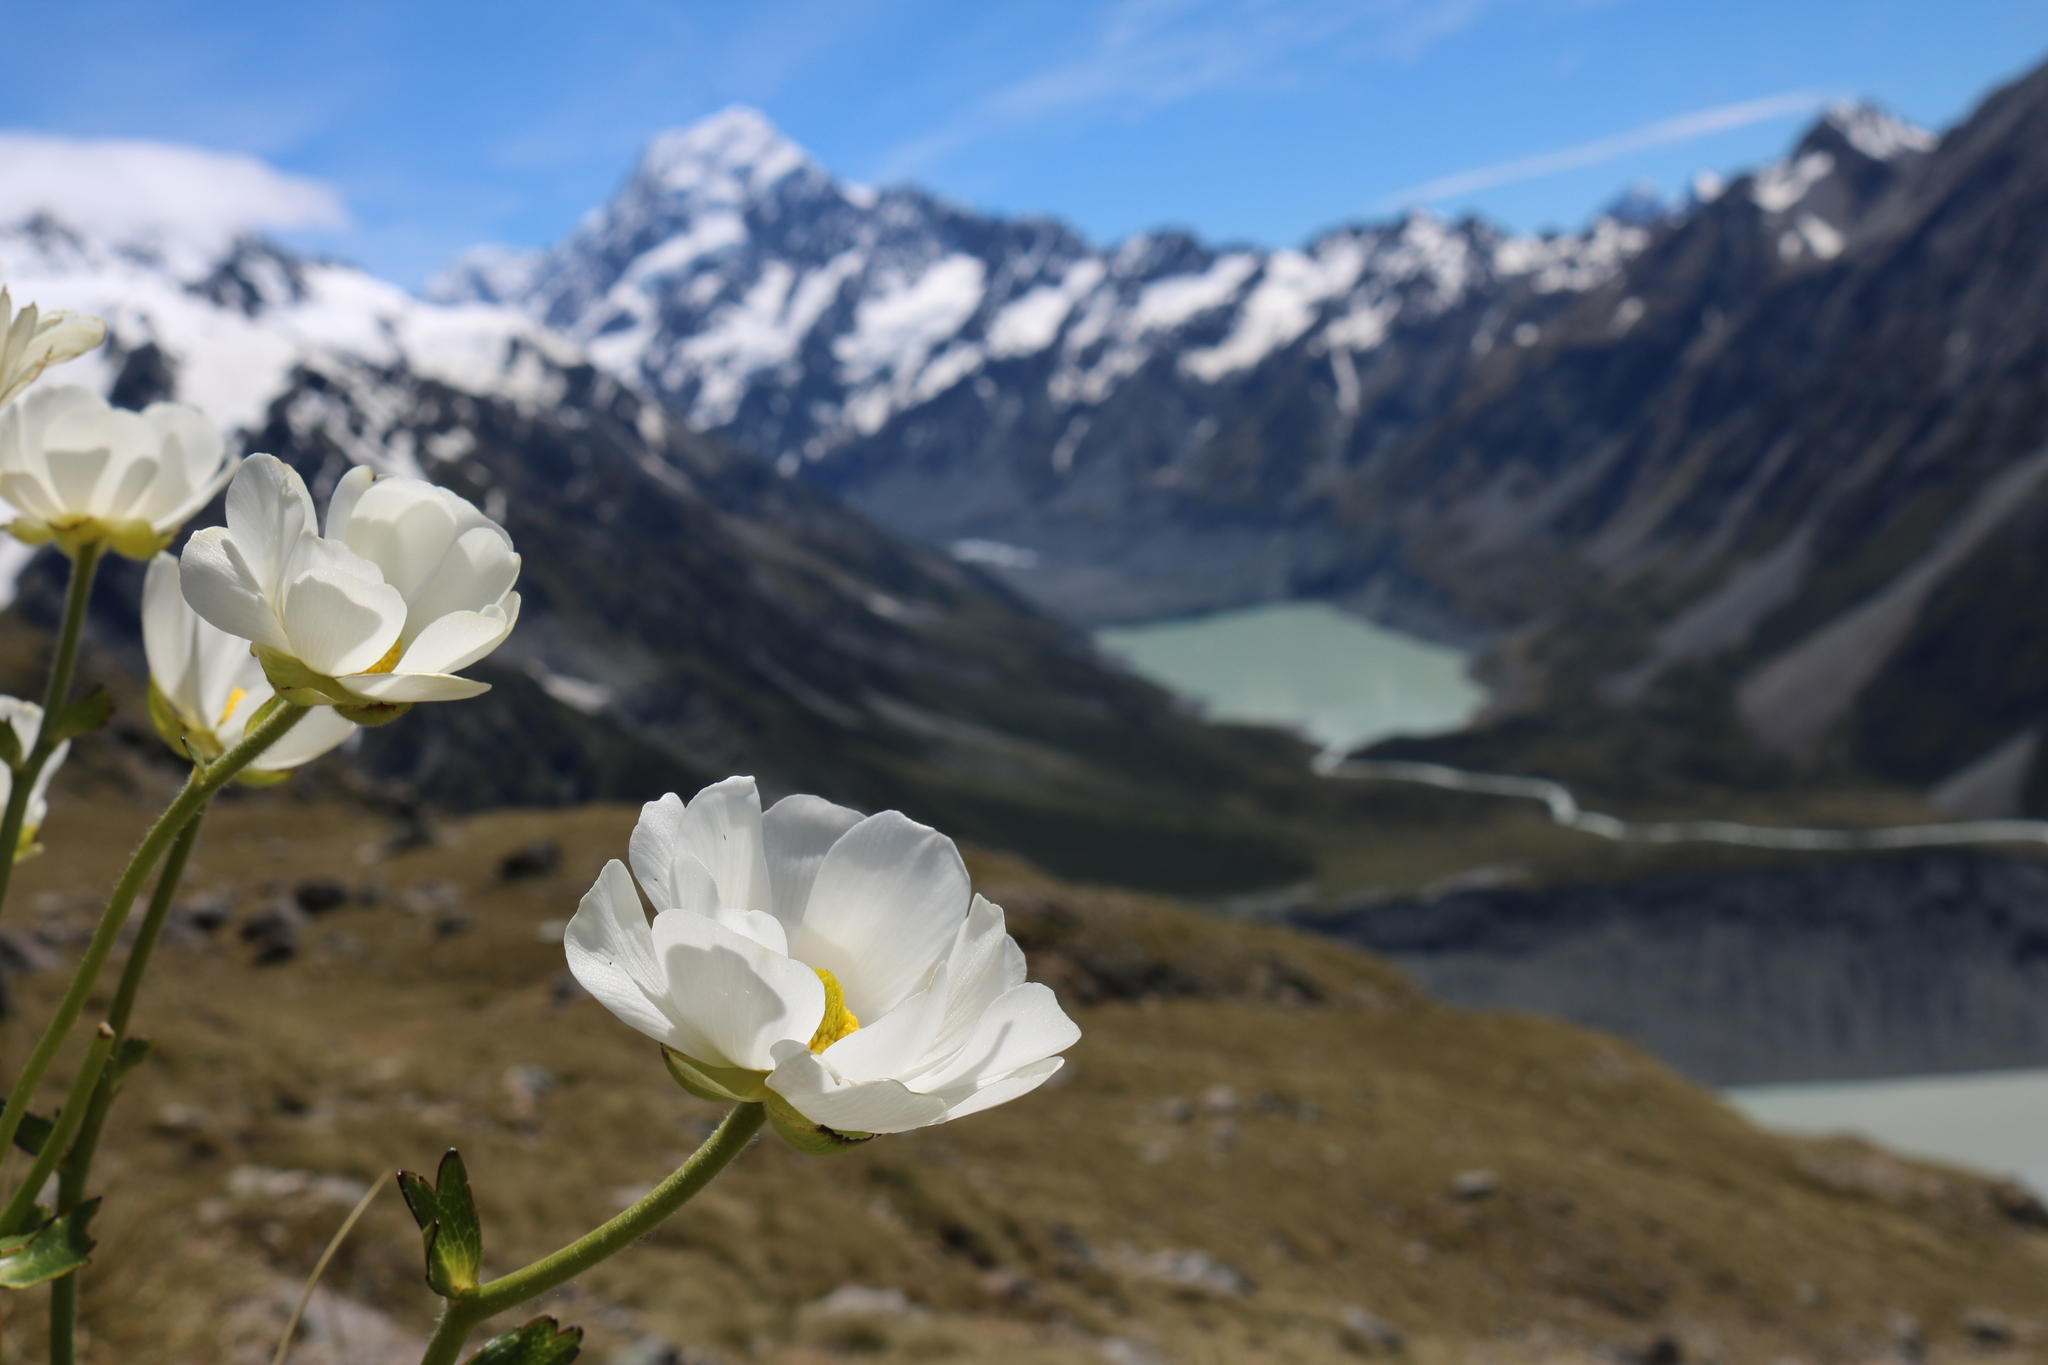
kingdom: Plantae
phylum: Tracheophyta
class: Magnoliopsida
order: Ranunculales
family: Ranunculaceae
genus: Ranunculus
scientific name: Ranunculus lyallii
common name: Mountain-lily
